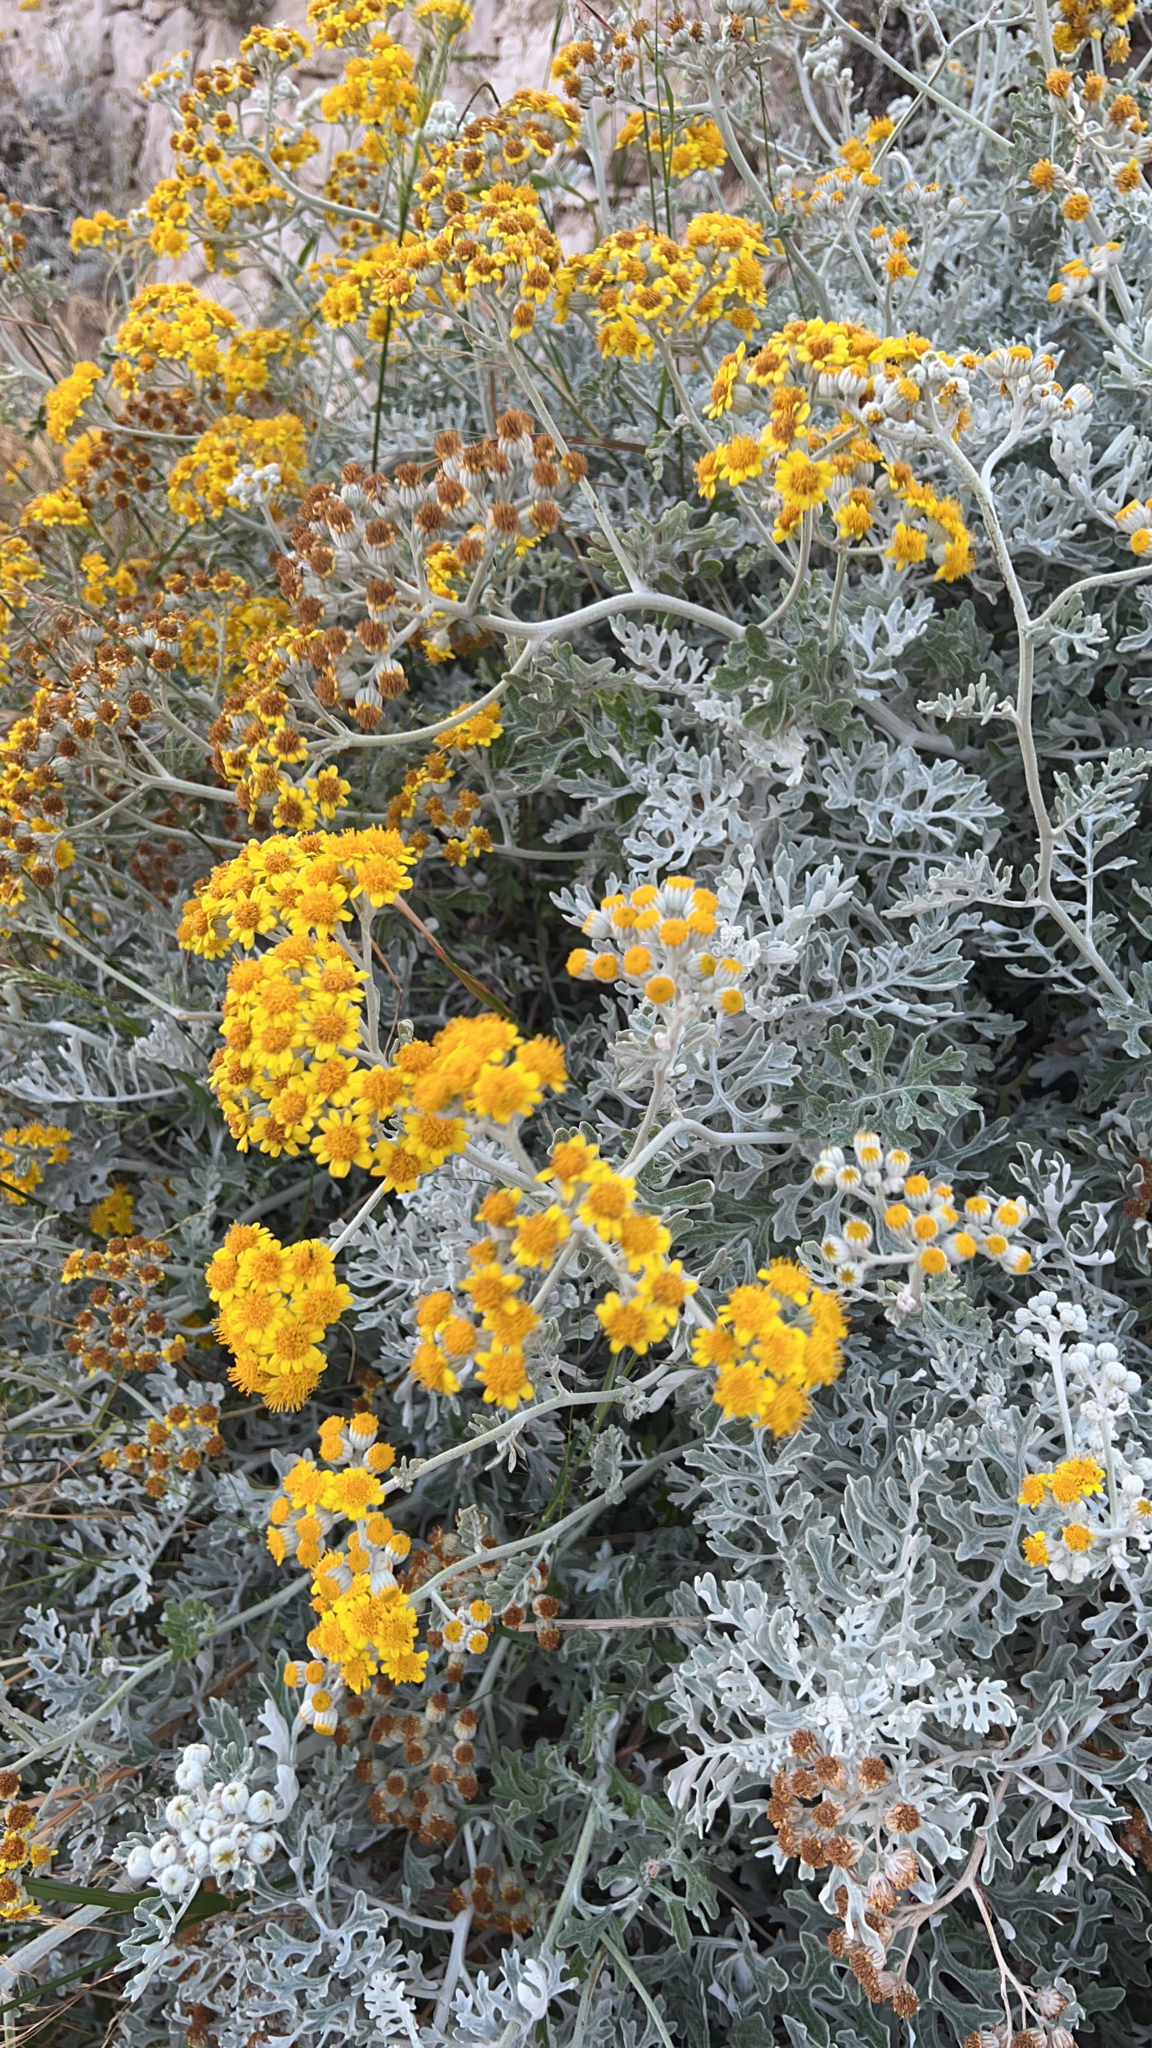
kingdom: Plantae
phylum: Tracheophyta
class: Magnoliopsida
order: Asterales
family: Asteraceae
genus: Jacobaea
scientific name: Jacobaea maritima
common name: Silver ragwort
